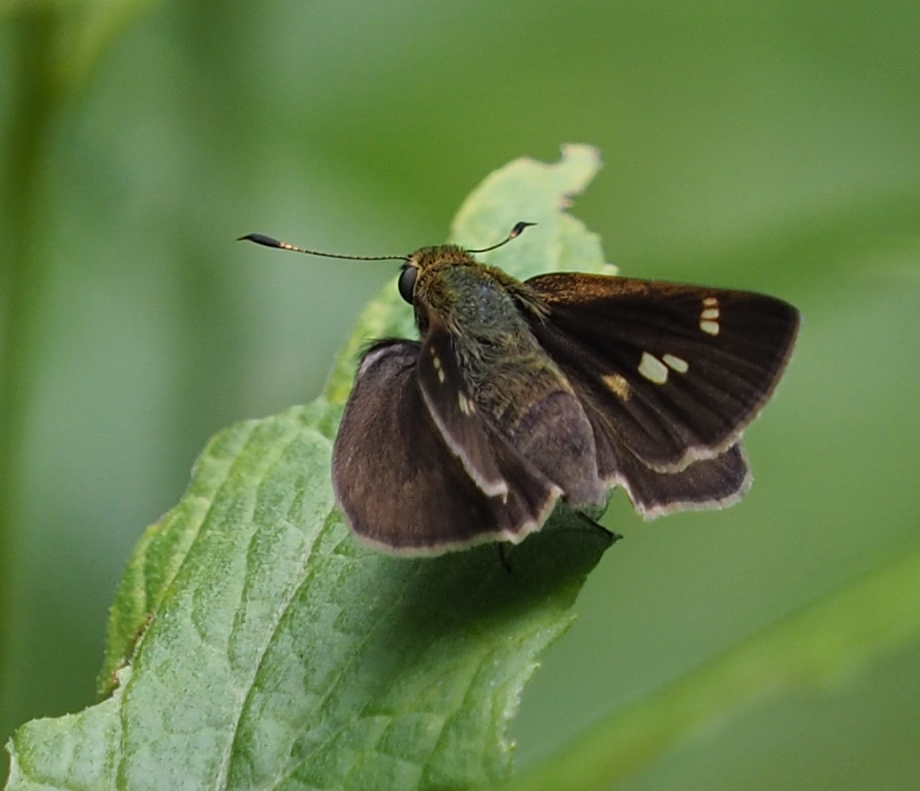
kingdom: Animalia
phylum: Arthropoda
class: Insecta
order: Lepidoptera
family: Hesperiidae
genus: Vernia
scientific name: Vernia verna
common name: Little glassywing
